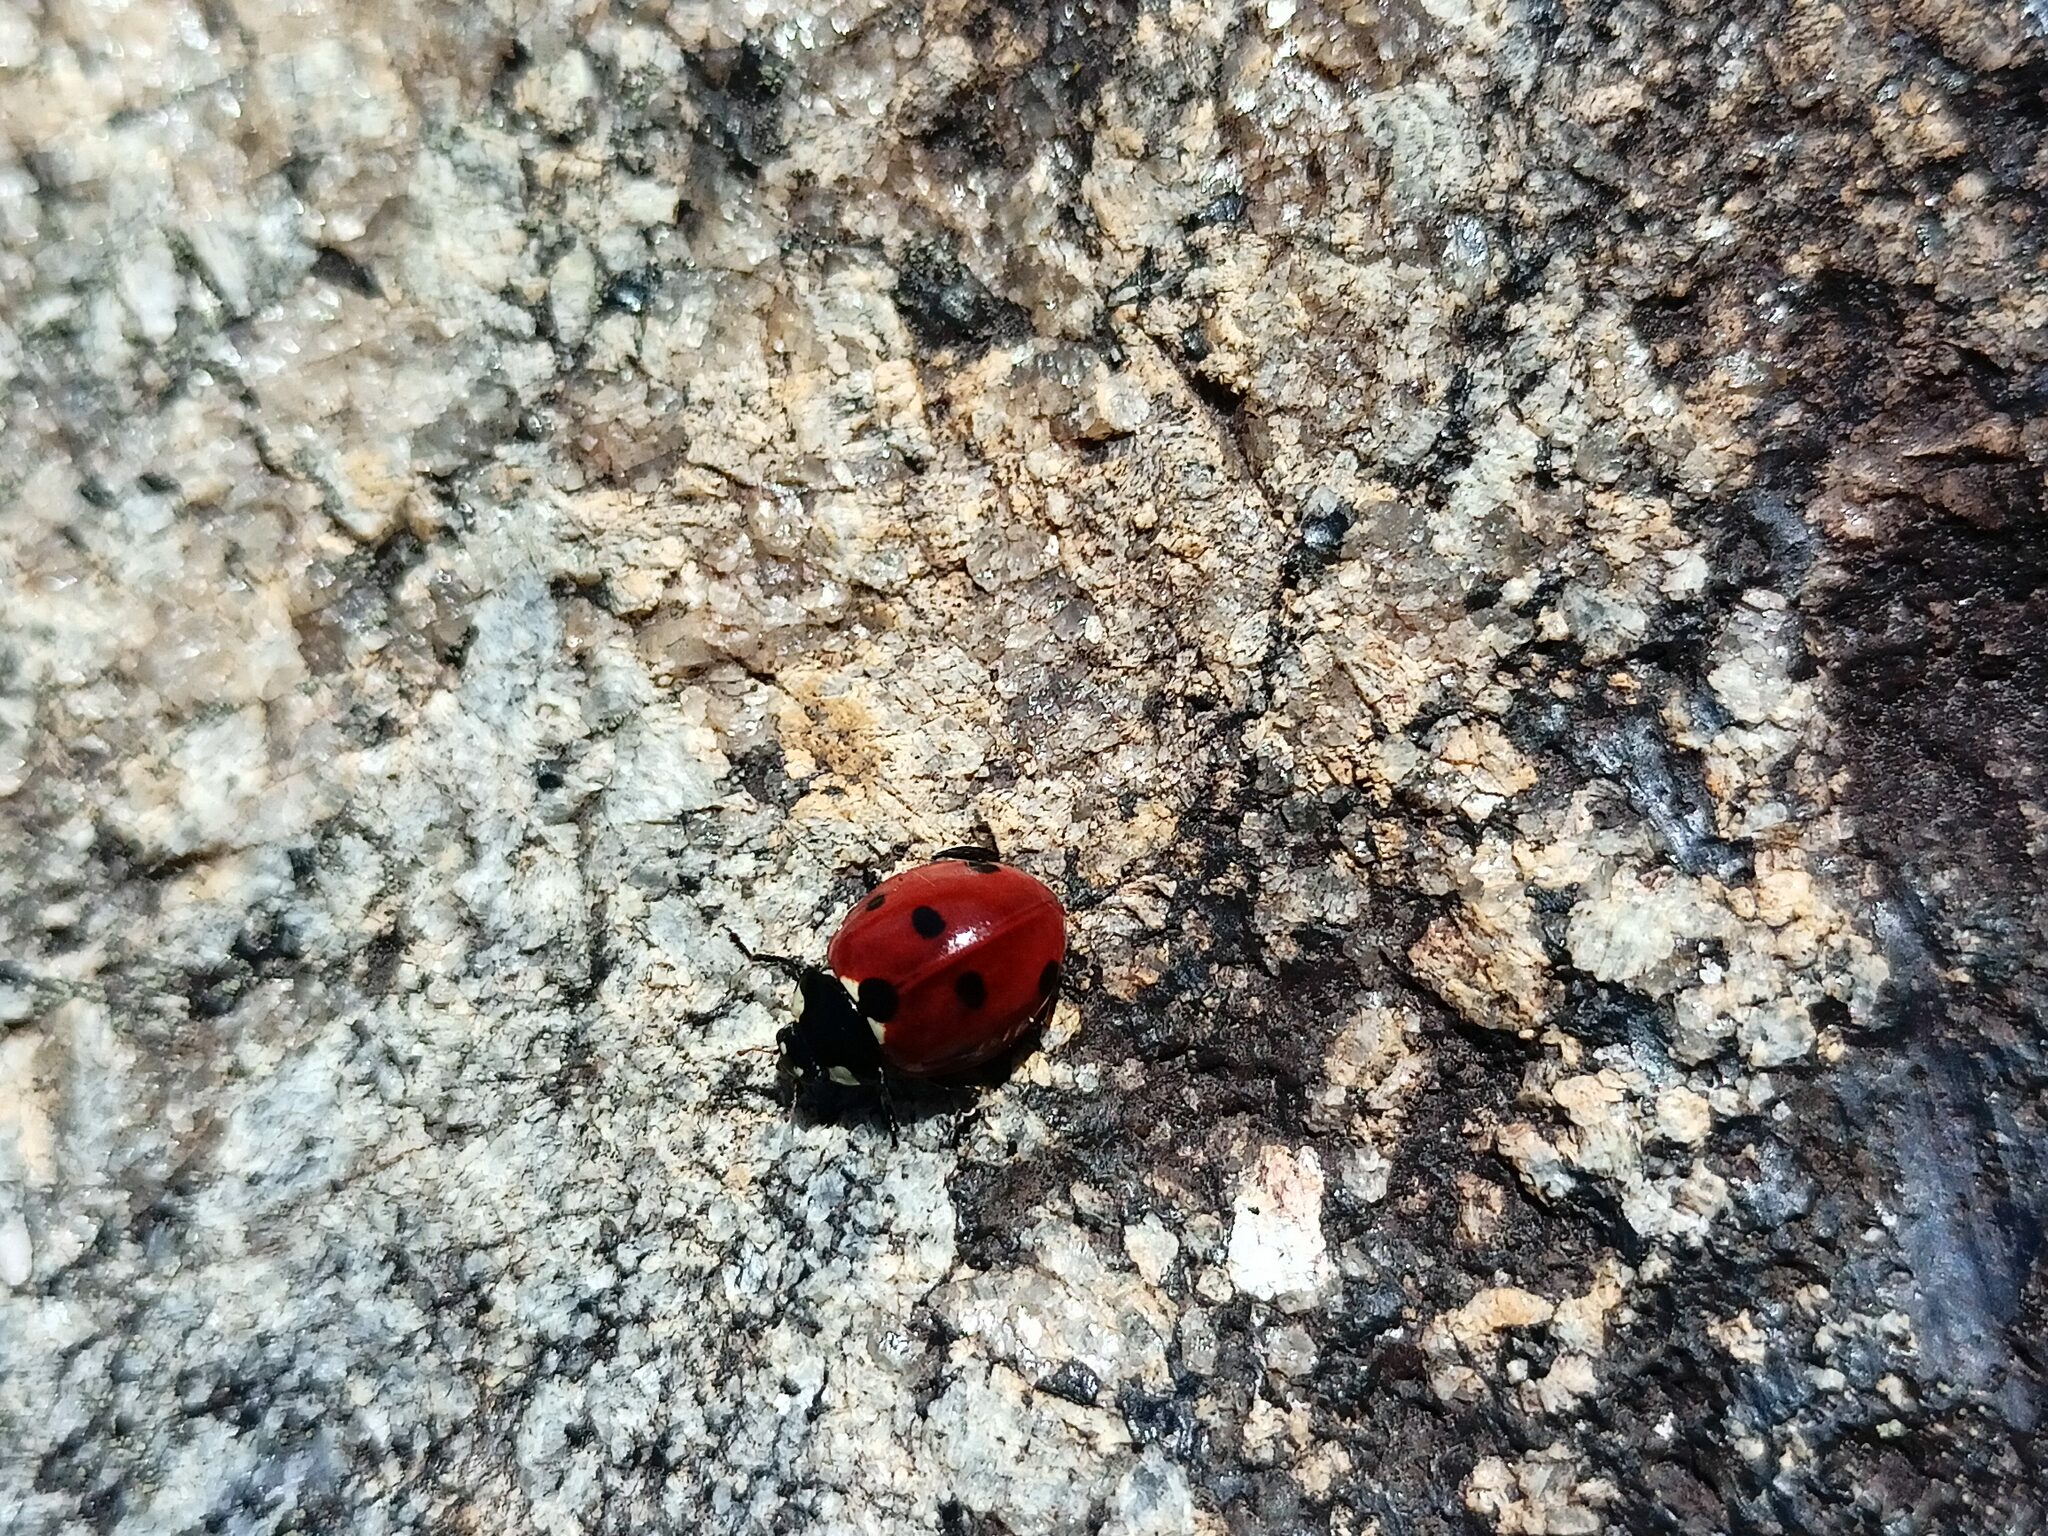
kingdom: Animalia
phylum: Arthropoda
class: Insecta
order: Coleoptera
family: Coccinellidae
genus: Coccinella
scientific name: Coccinella septempunctata
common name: Sevenspotted lady beetle
